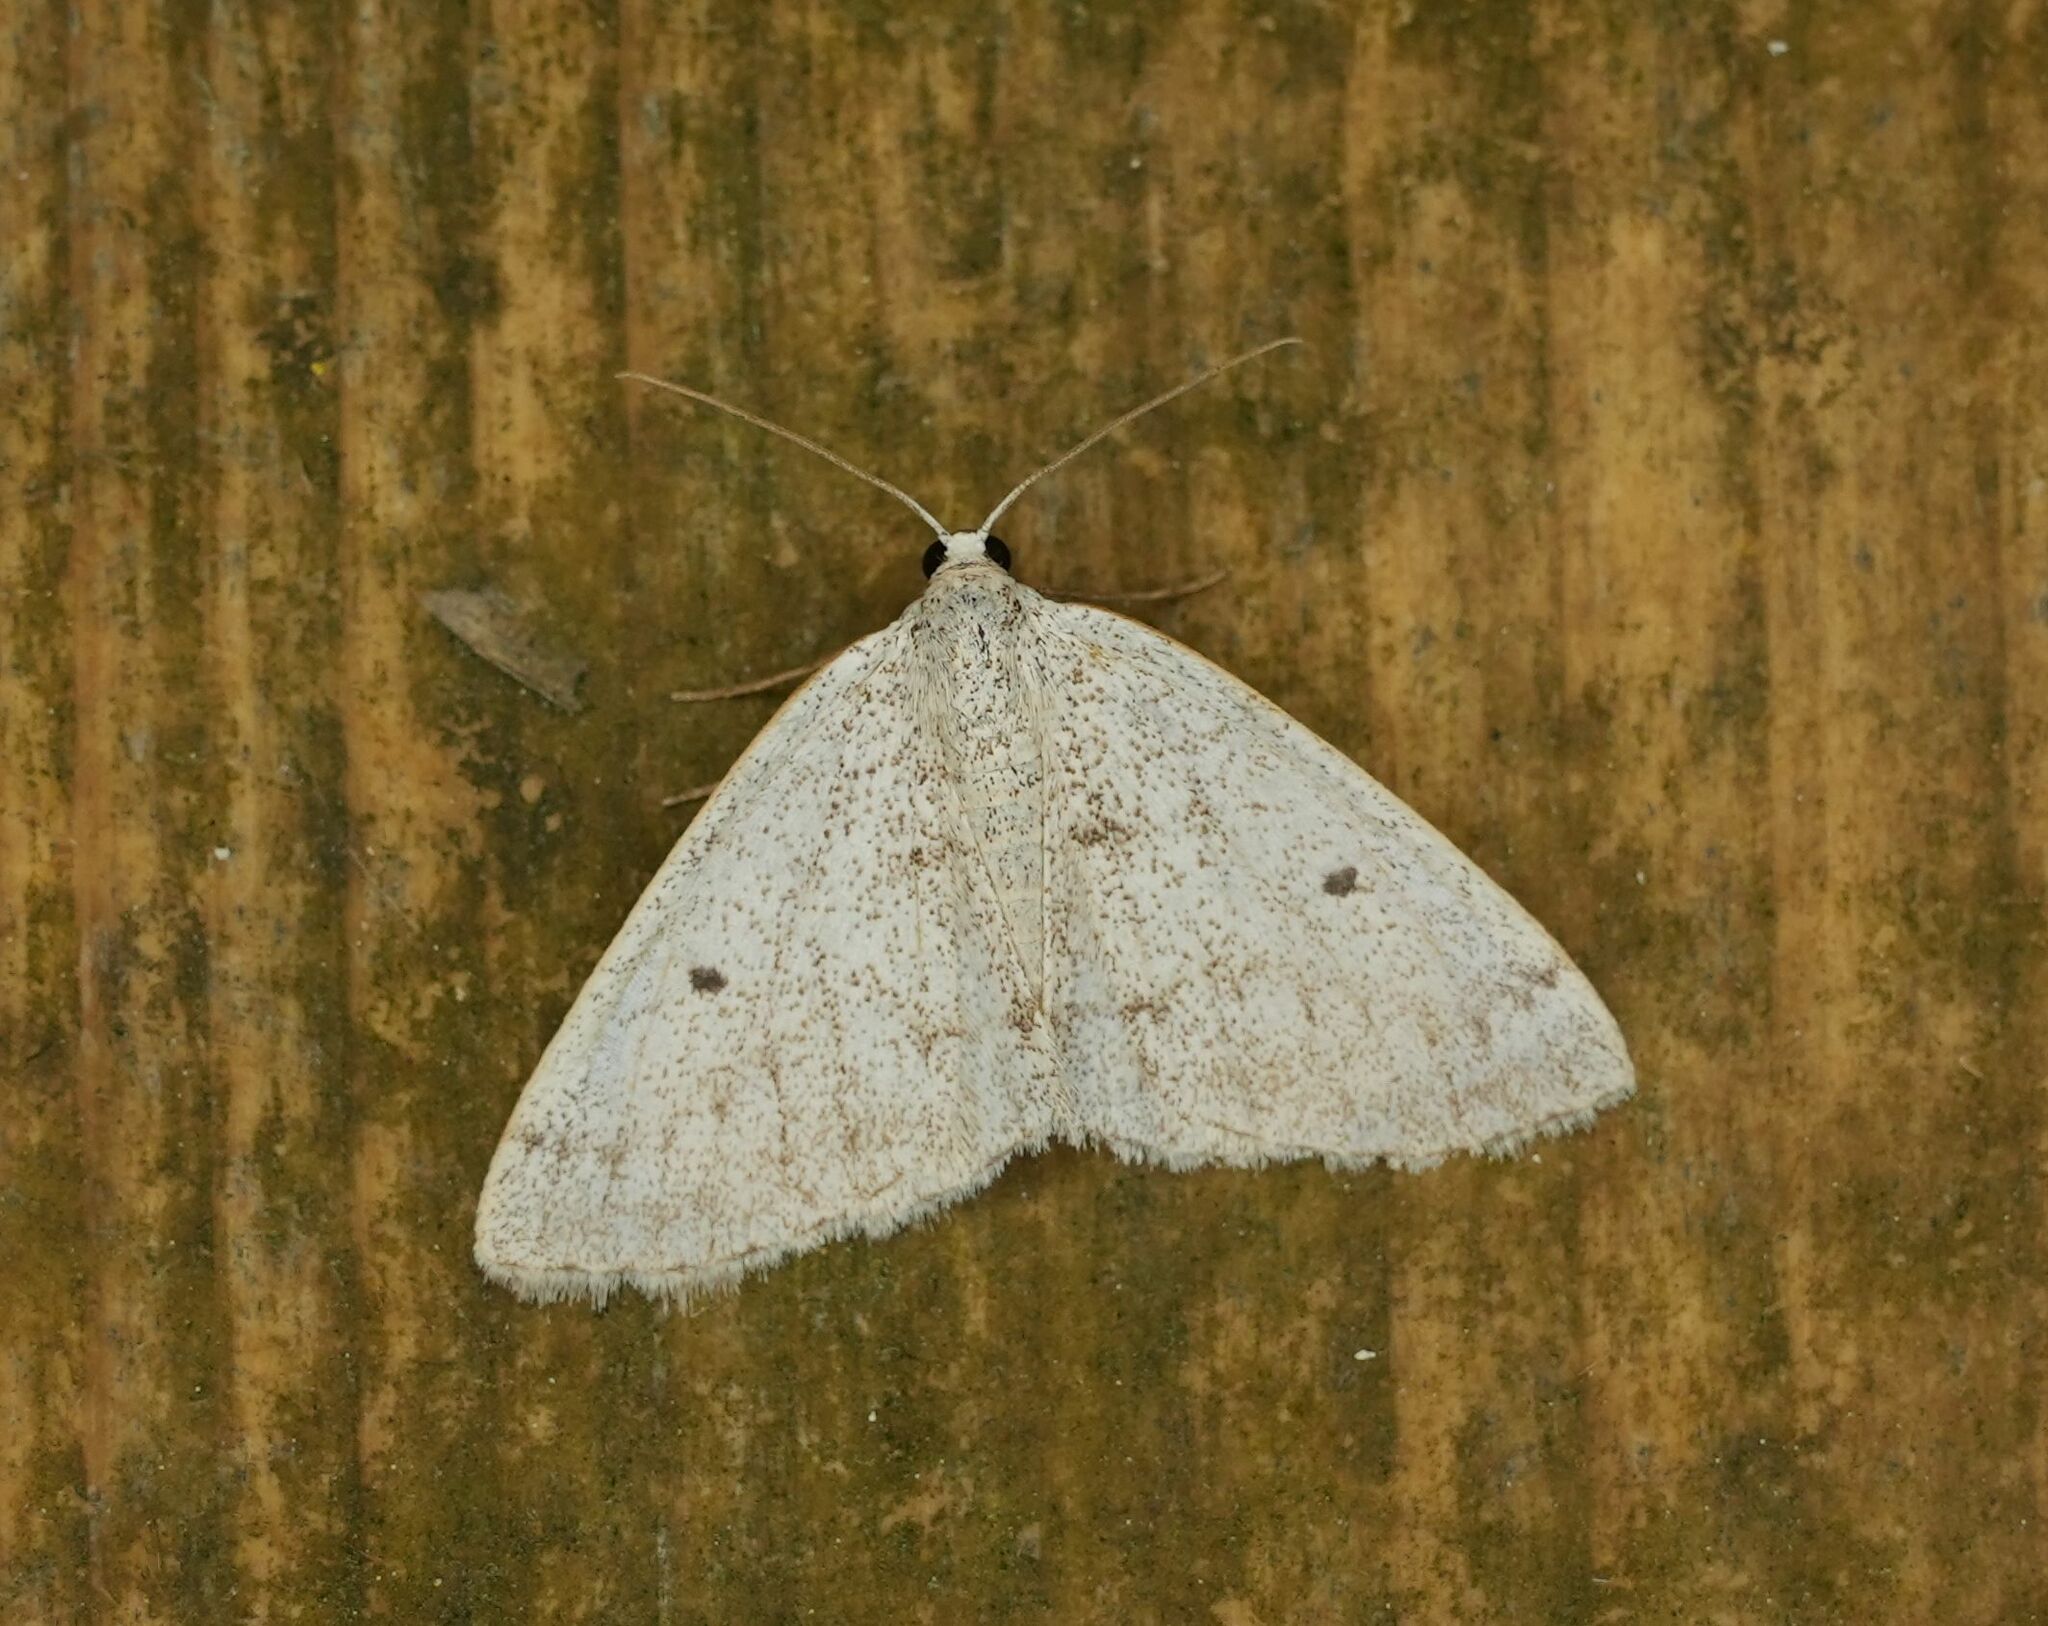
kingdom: Animalia
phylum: Arthropoda
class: Insecta
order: Lepidoptera
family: Geometridae
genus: Lomographa
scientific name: Lomographa glomeraria
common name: Gray spring moth
